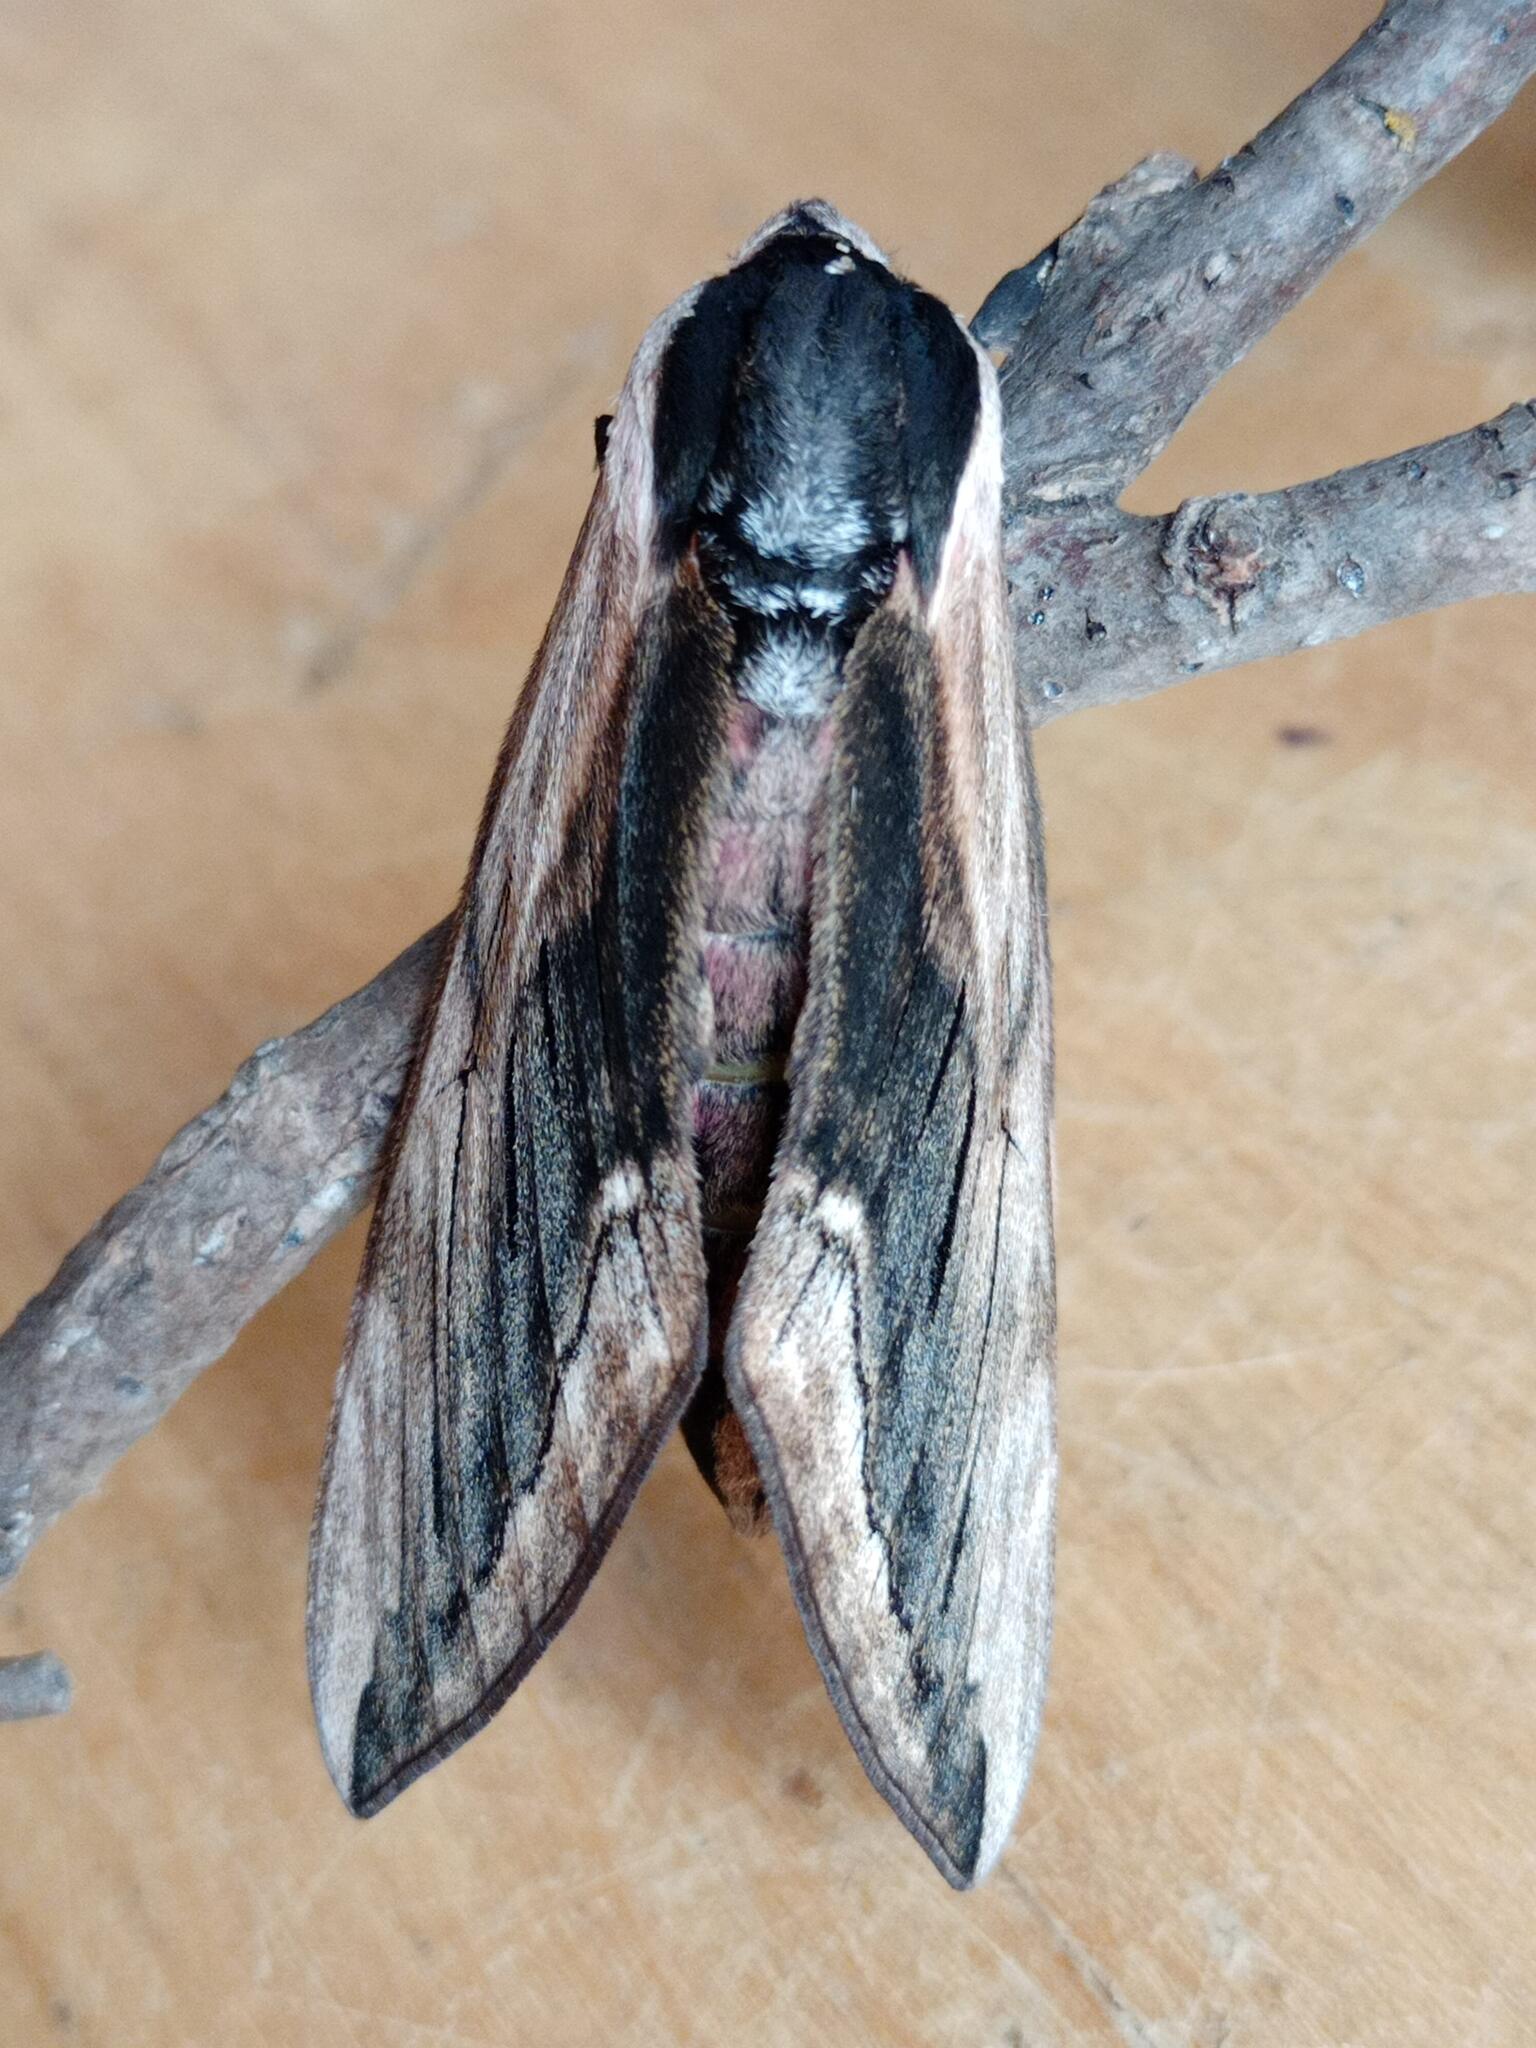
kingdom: Animalia
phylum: Arthropoda
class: Insecta
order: Lepidoptera
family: Sphingidae
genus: Sphinx
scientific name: Sphinx ligustri
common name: Privet hawk-moth
